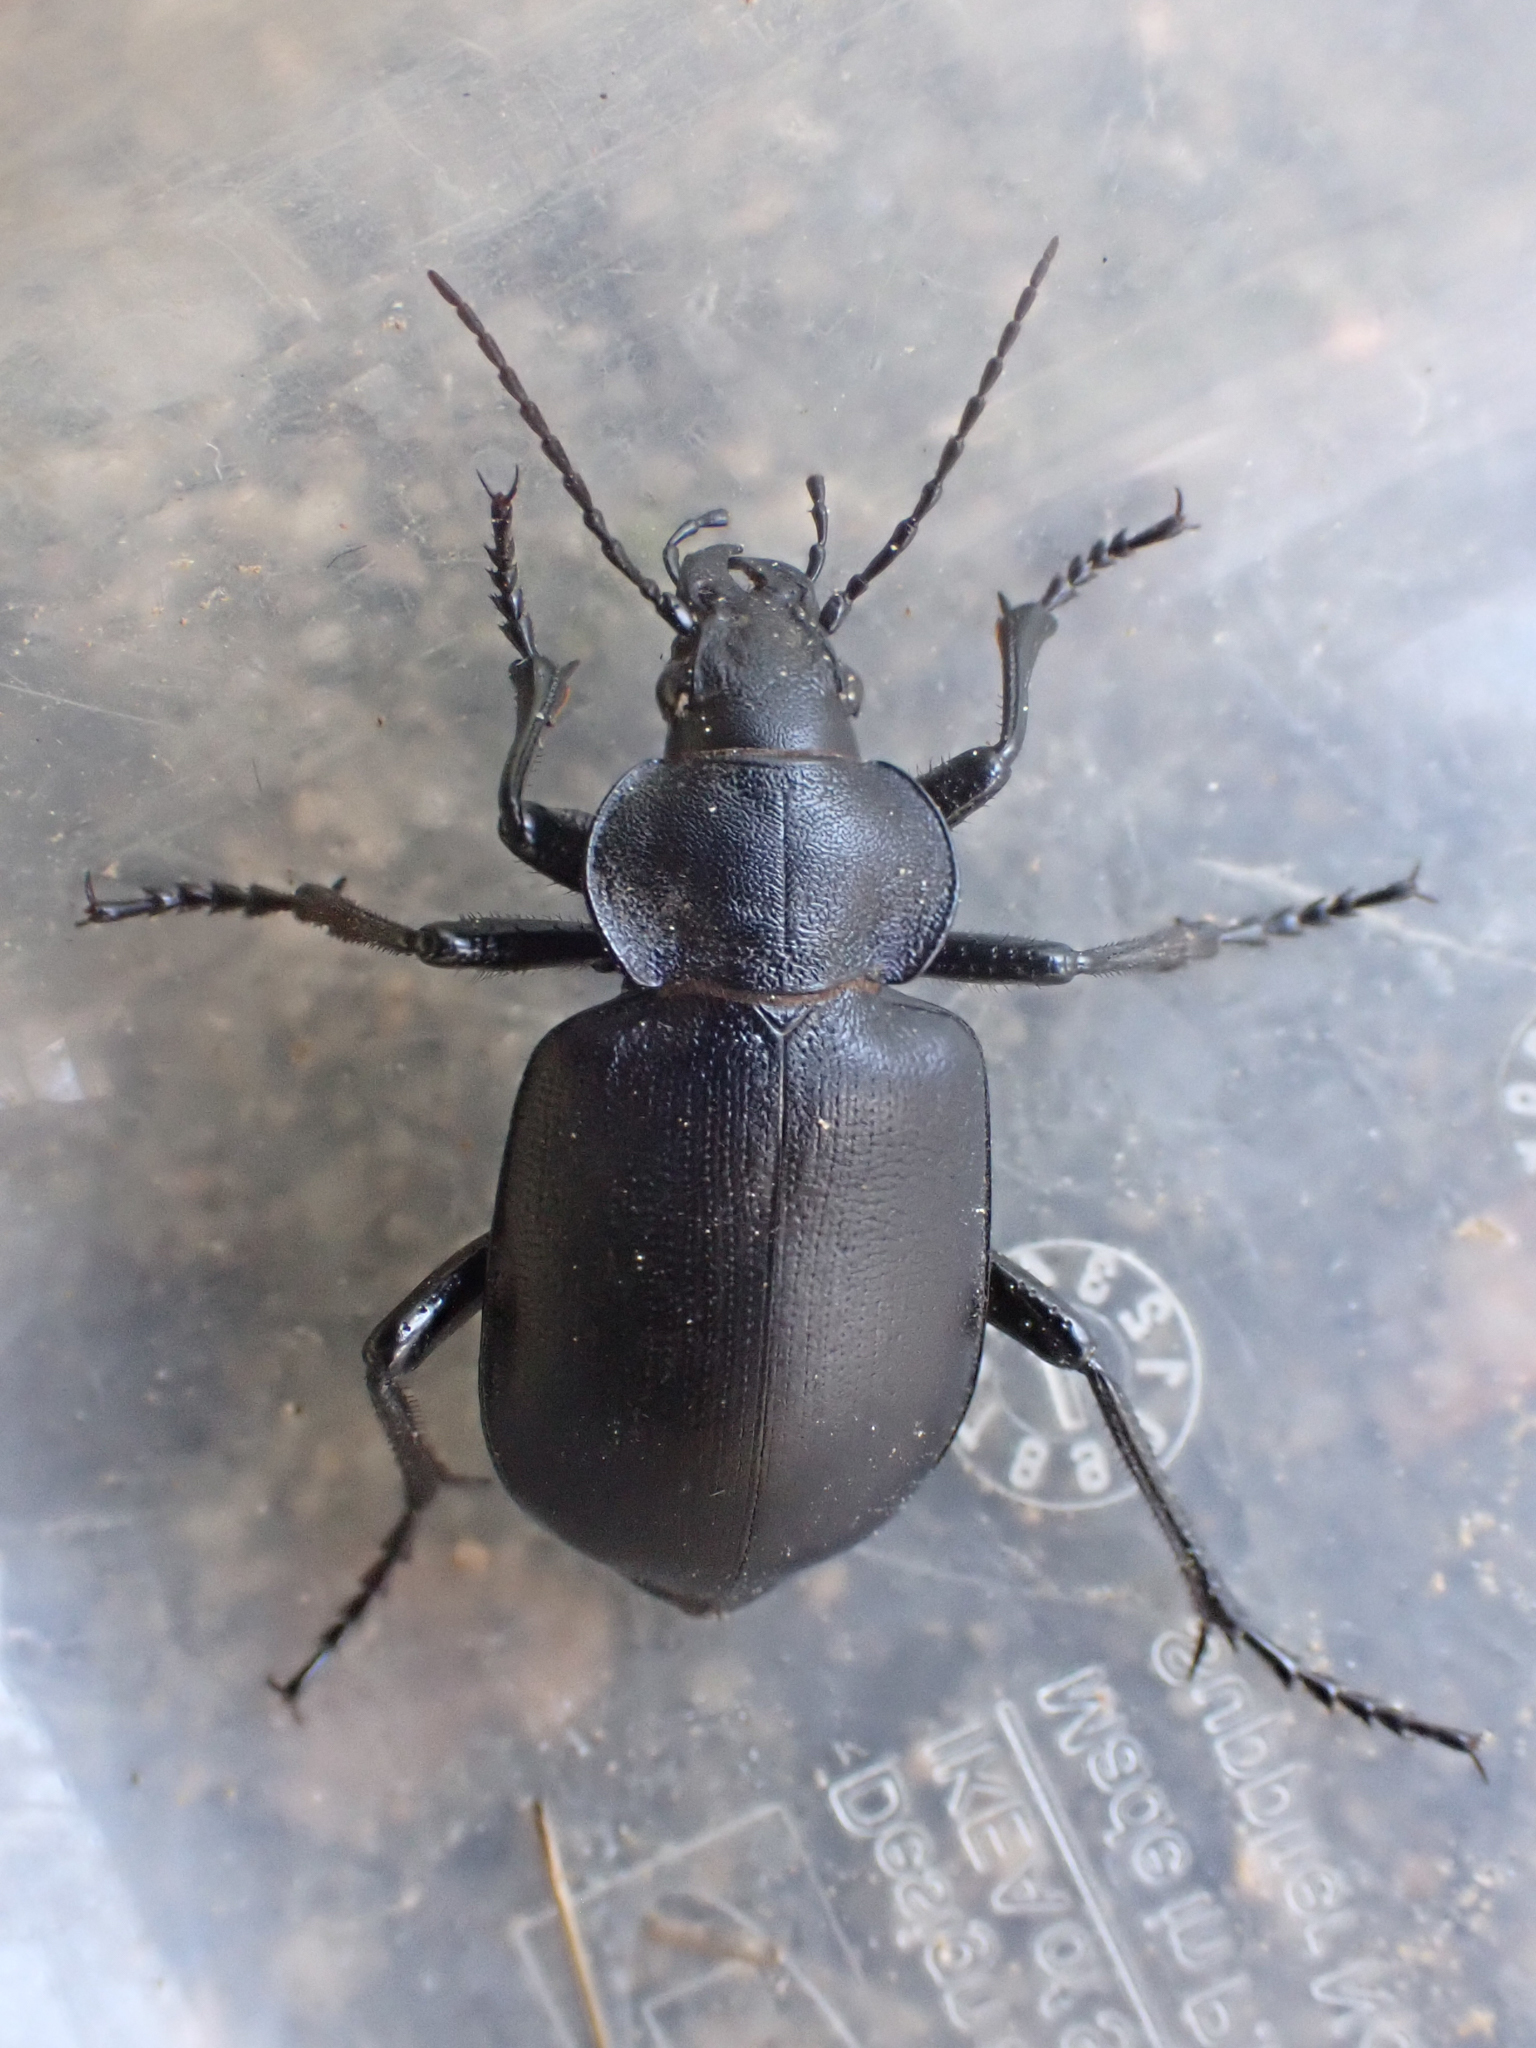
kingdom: Animalia
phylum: Arthropoda
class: Insecta
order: Coleoptera
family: Carabidae
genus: Calosoma
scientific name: Calosoma semilaeve
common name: Black calosoma beetle
